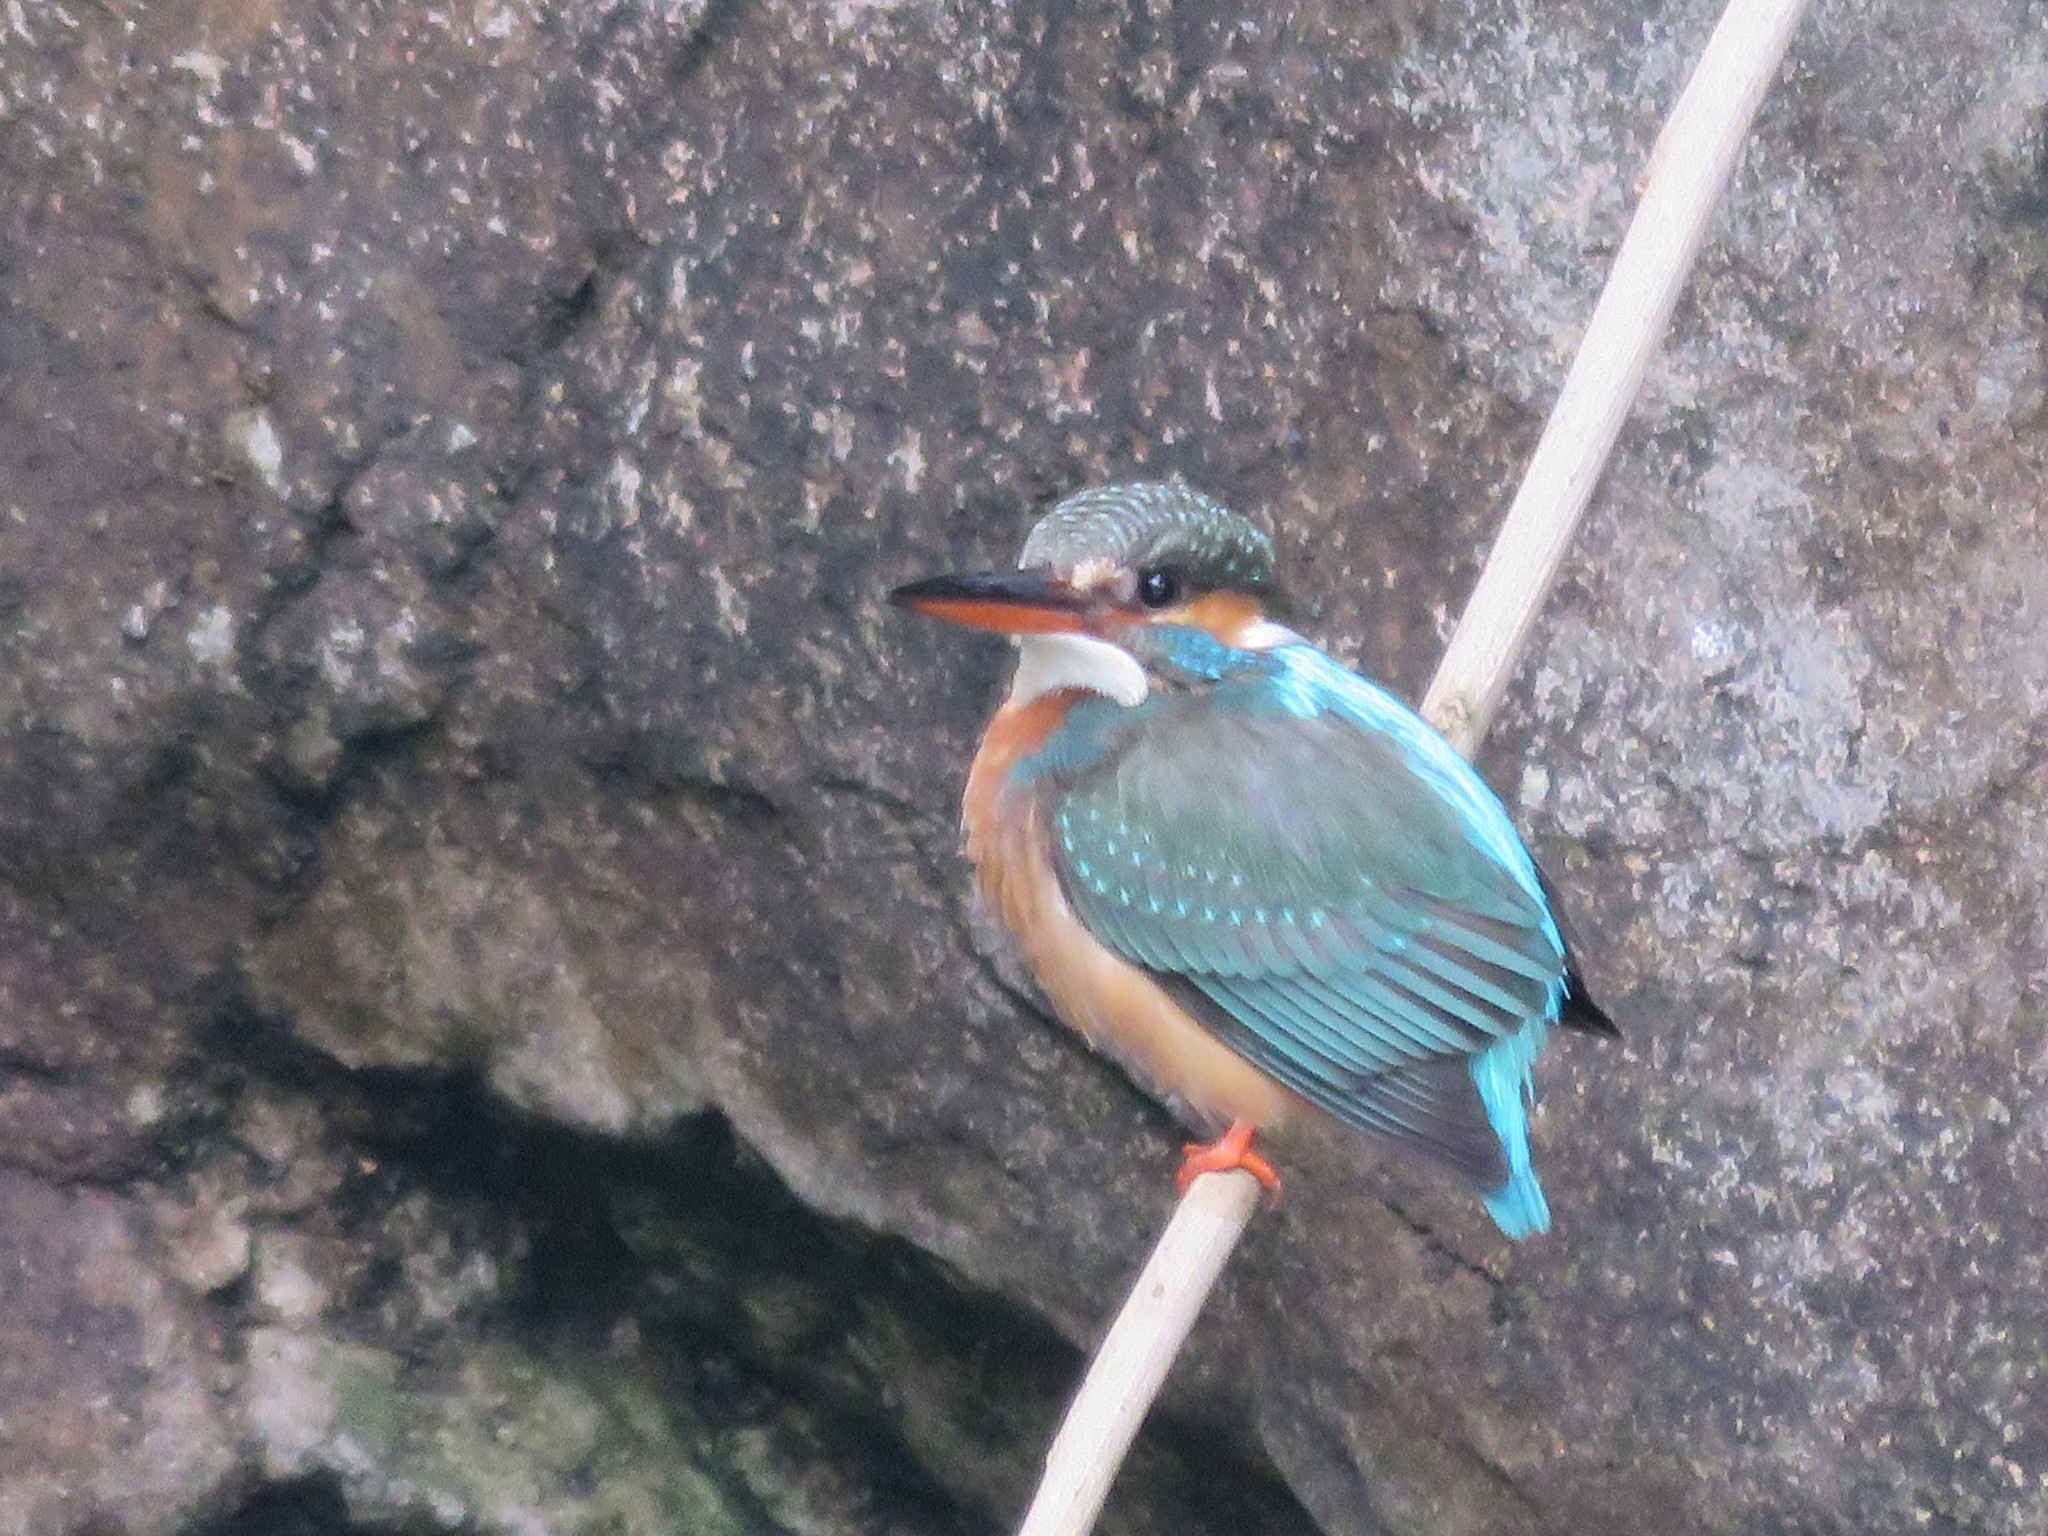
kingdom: Animalia
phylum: Chordata
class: Aves
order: Coraciiformes
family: Alcedinidae
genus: Alcedo
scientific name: Alcedo atthis
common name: Common kingfisher
